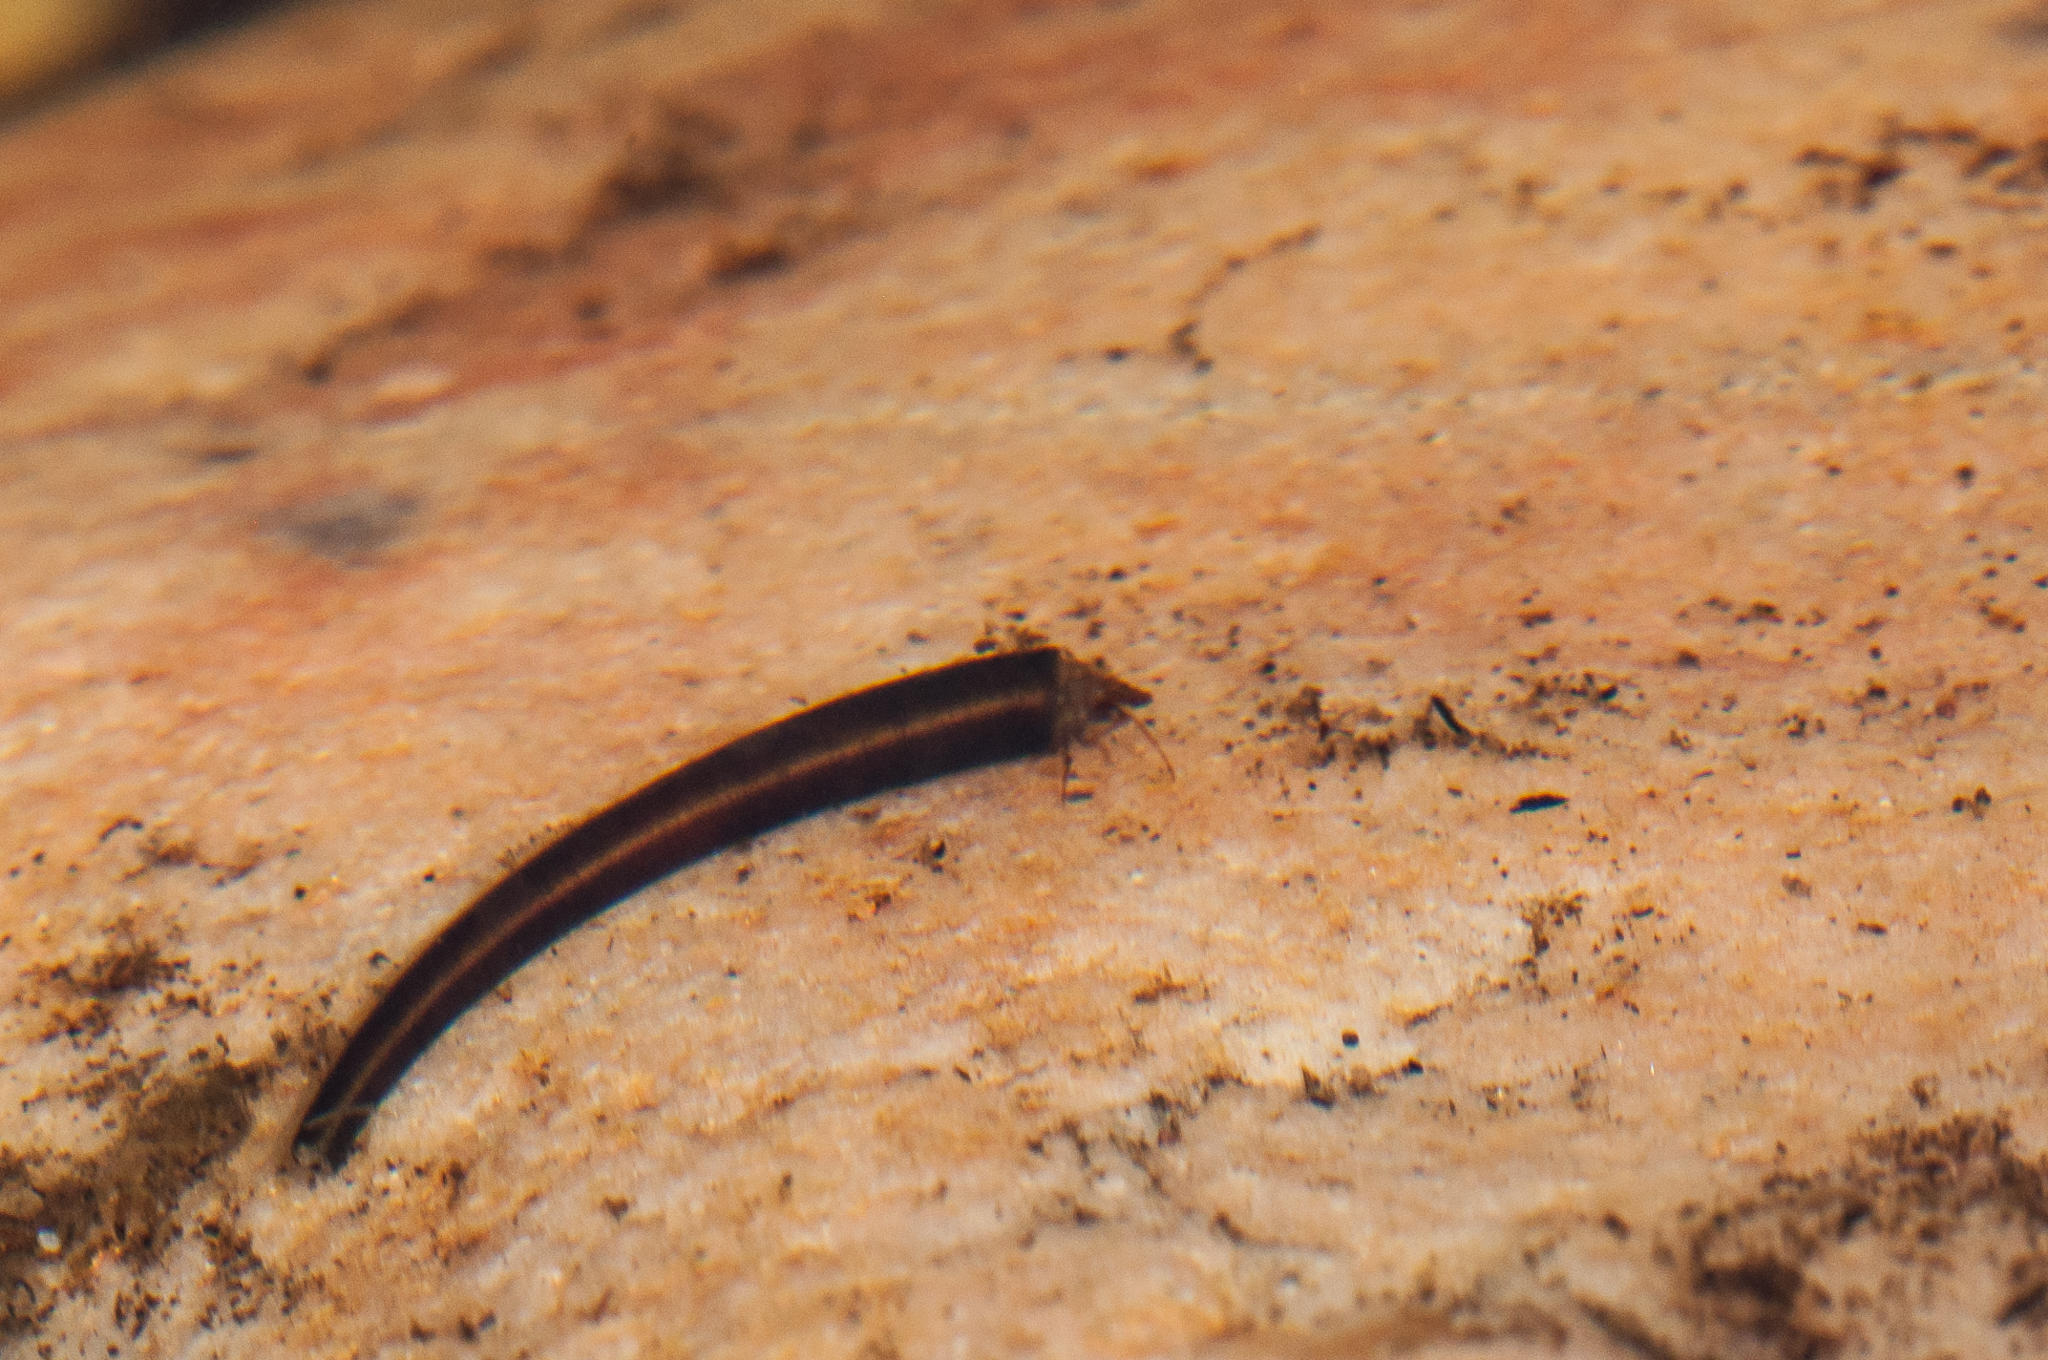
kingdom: Animalia
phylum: Arthropoda
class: Insecta
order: Trichoptera
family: Leptoceridae
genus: Athripsodes
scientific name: Athripsodes bergensis
